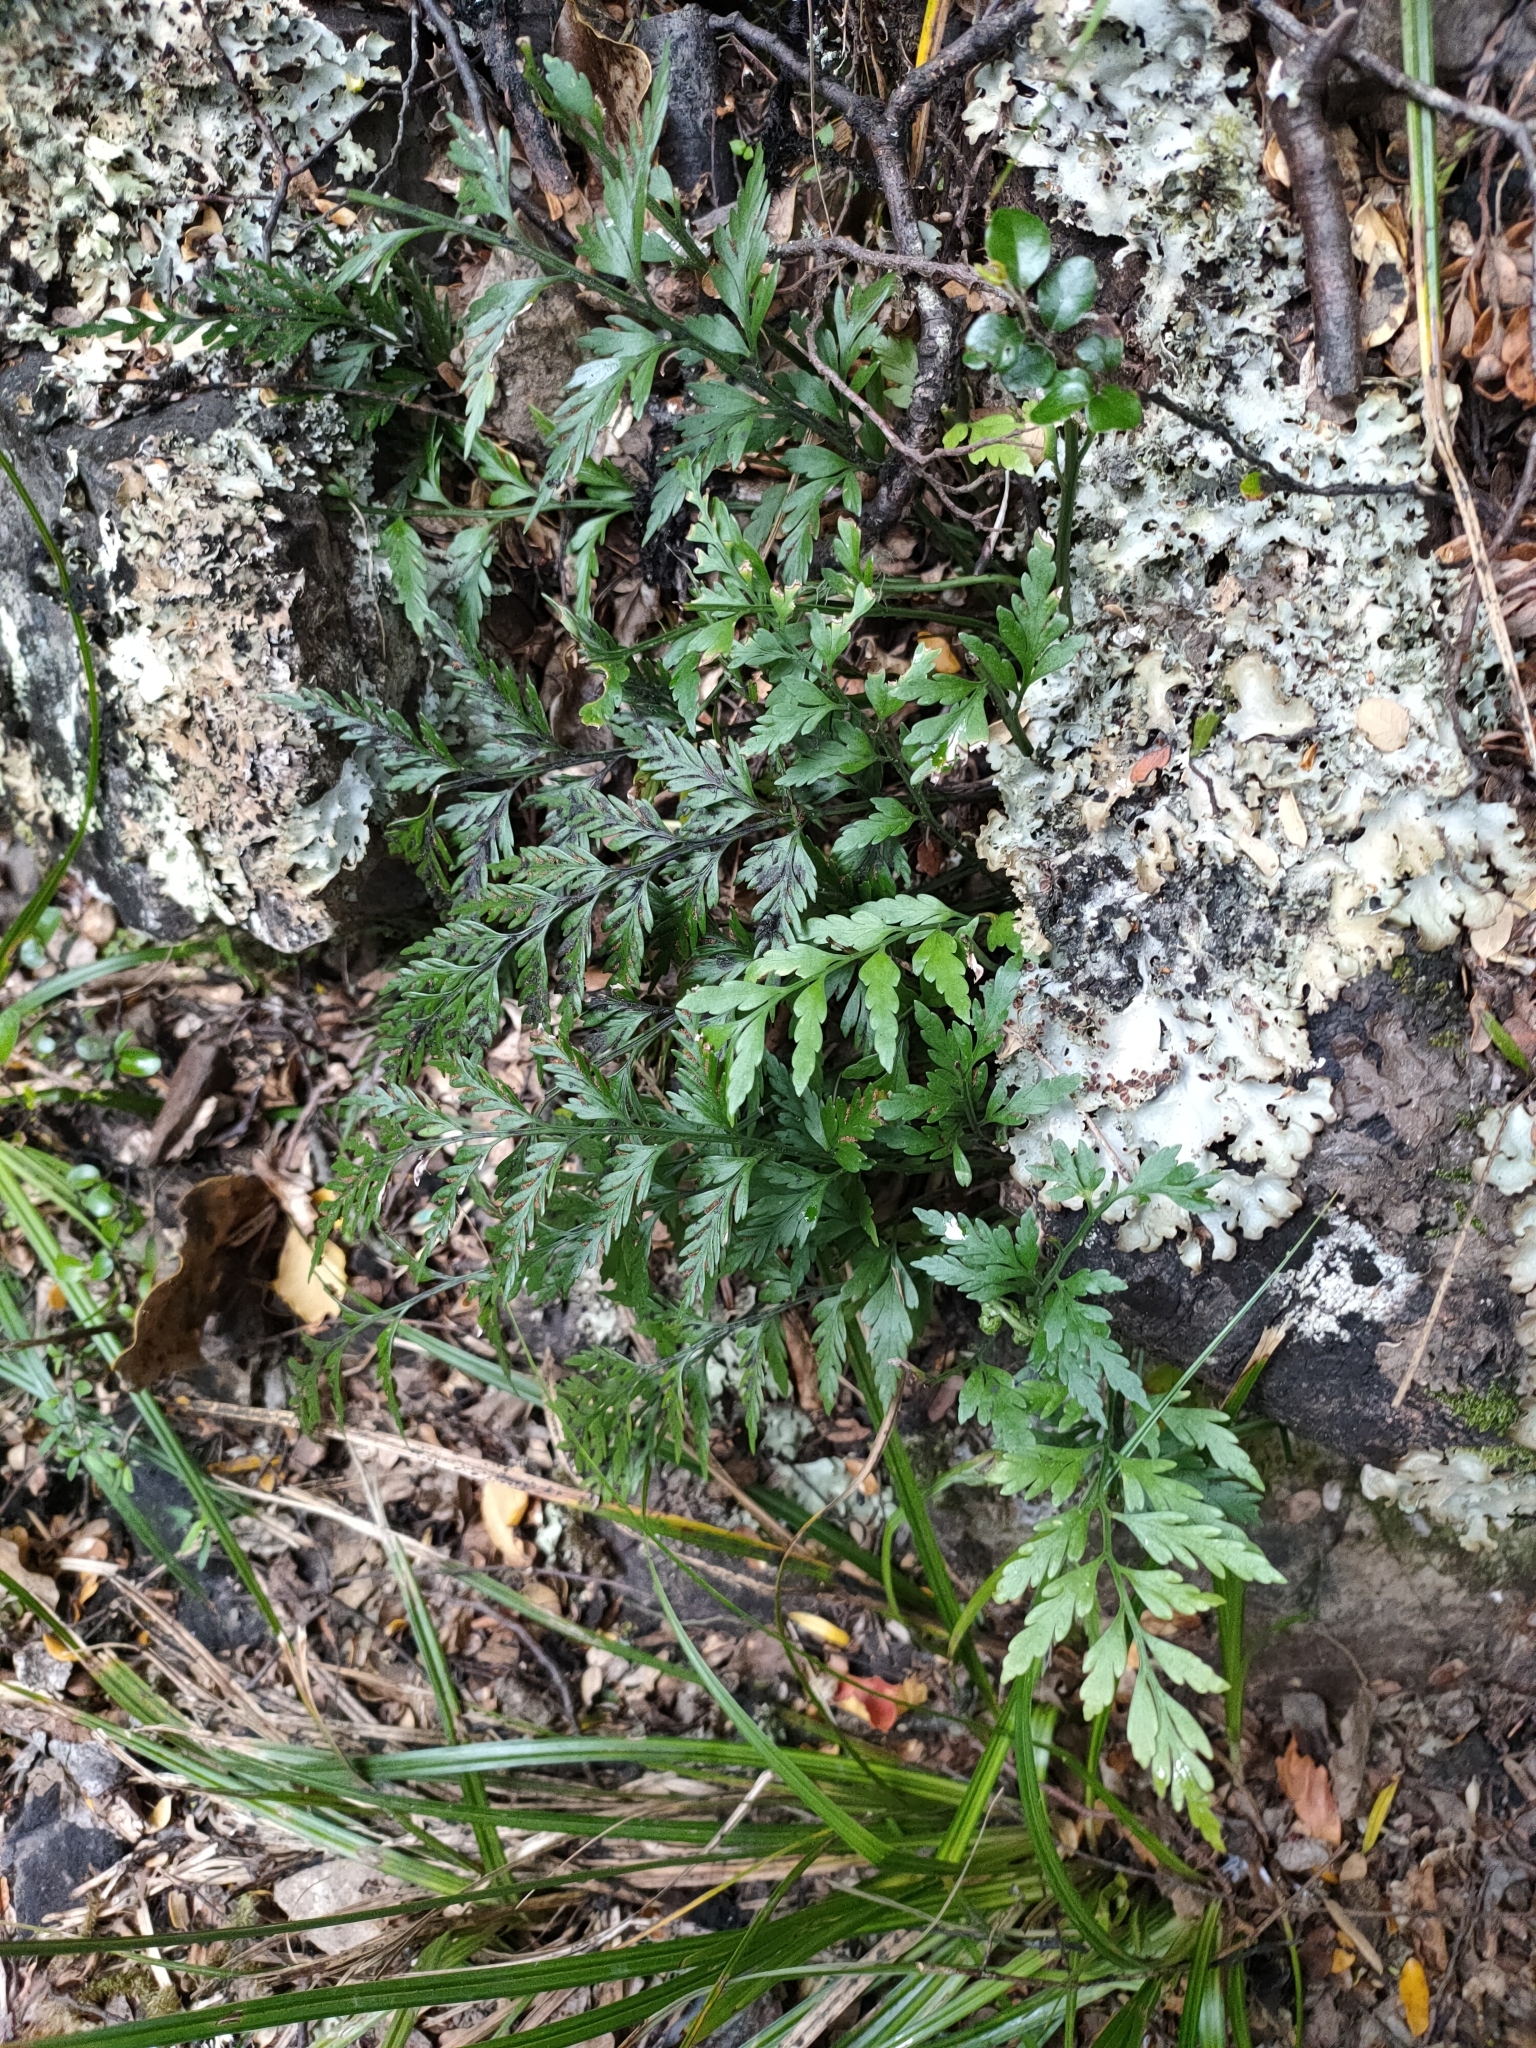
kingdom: Plantae
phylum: Tracheophyta
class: Polypodiopsida
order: Polypodiales
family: Aspleniaceae
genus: Asplenium
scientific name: Asplenium appendiculatum
